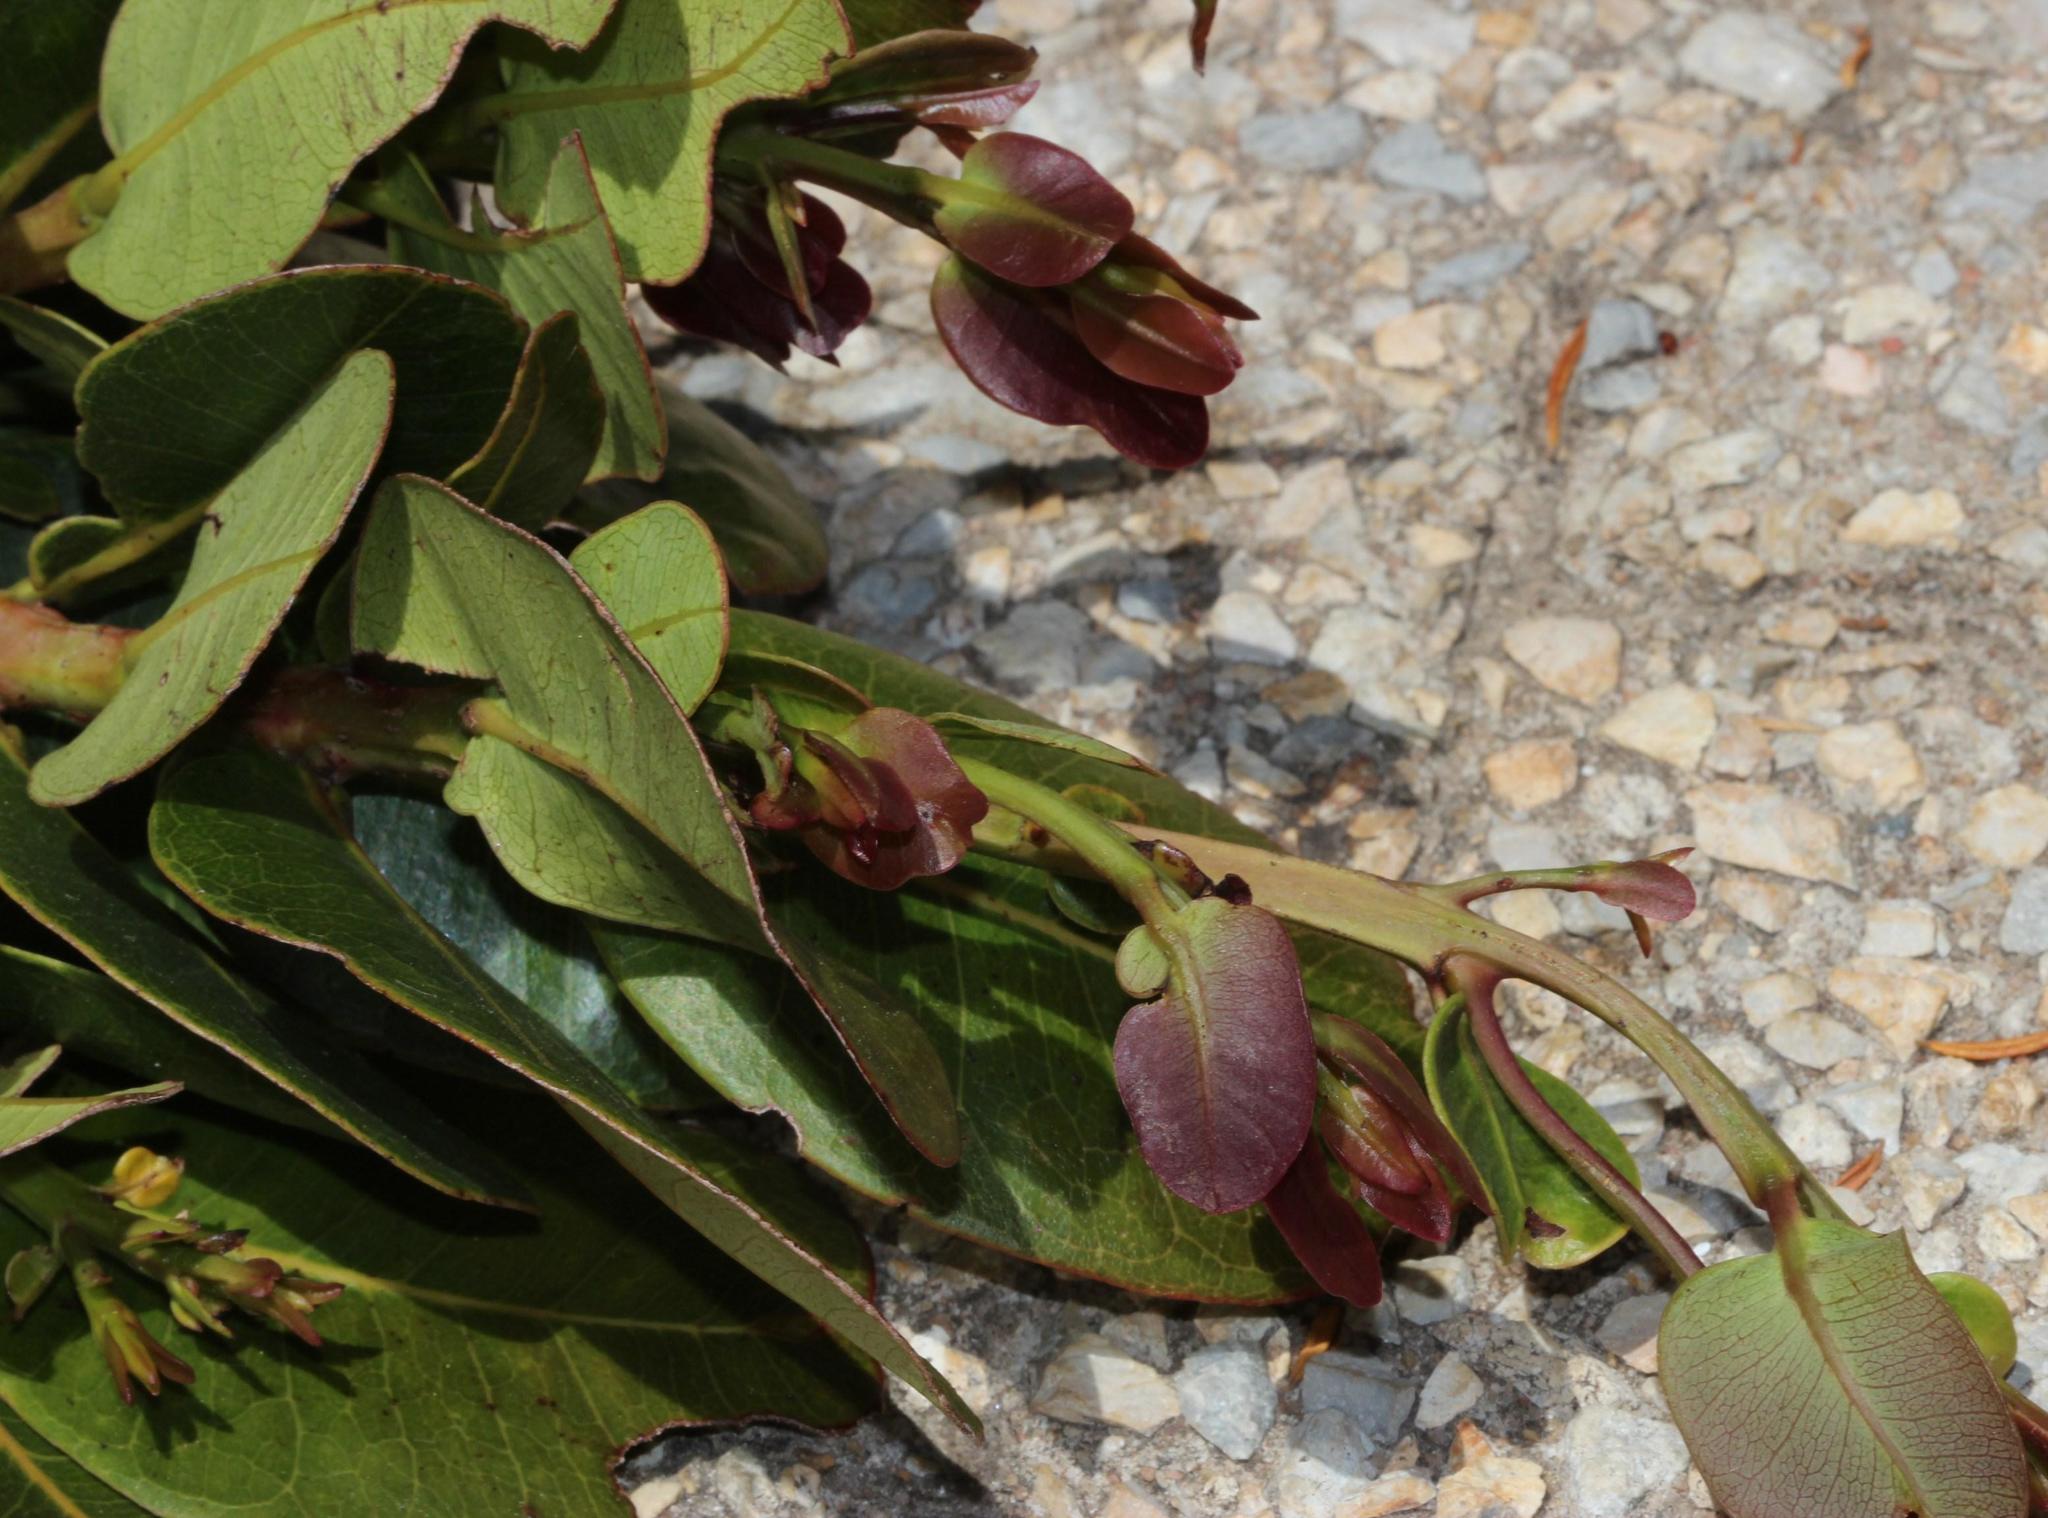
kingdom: Plantae
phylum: Tracheophyta
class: Magnoliopsida
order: Myrtales
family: Myrtaceae
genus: Syzygium
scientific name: Syzygium cordatum
